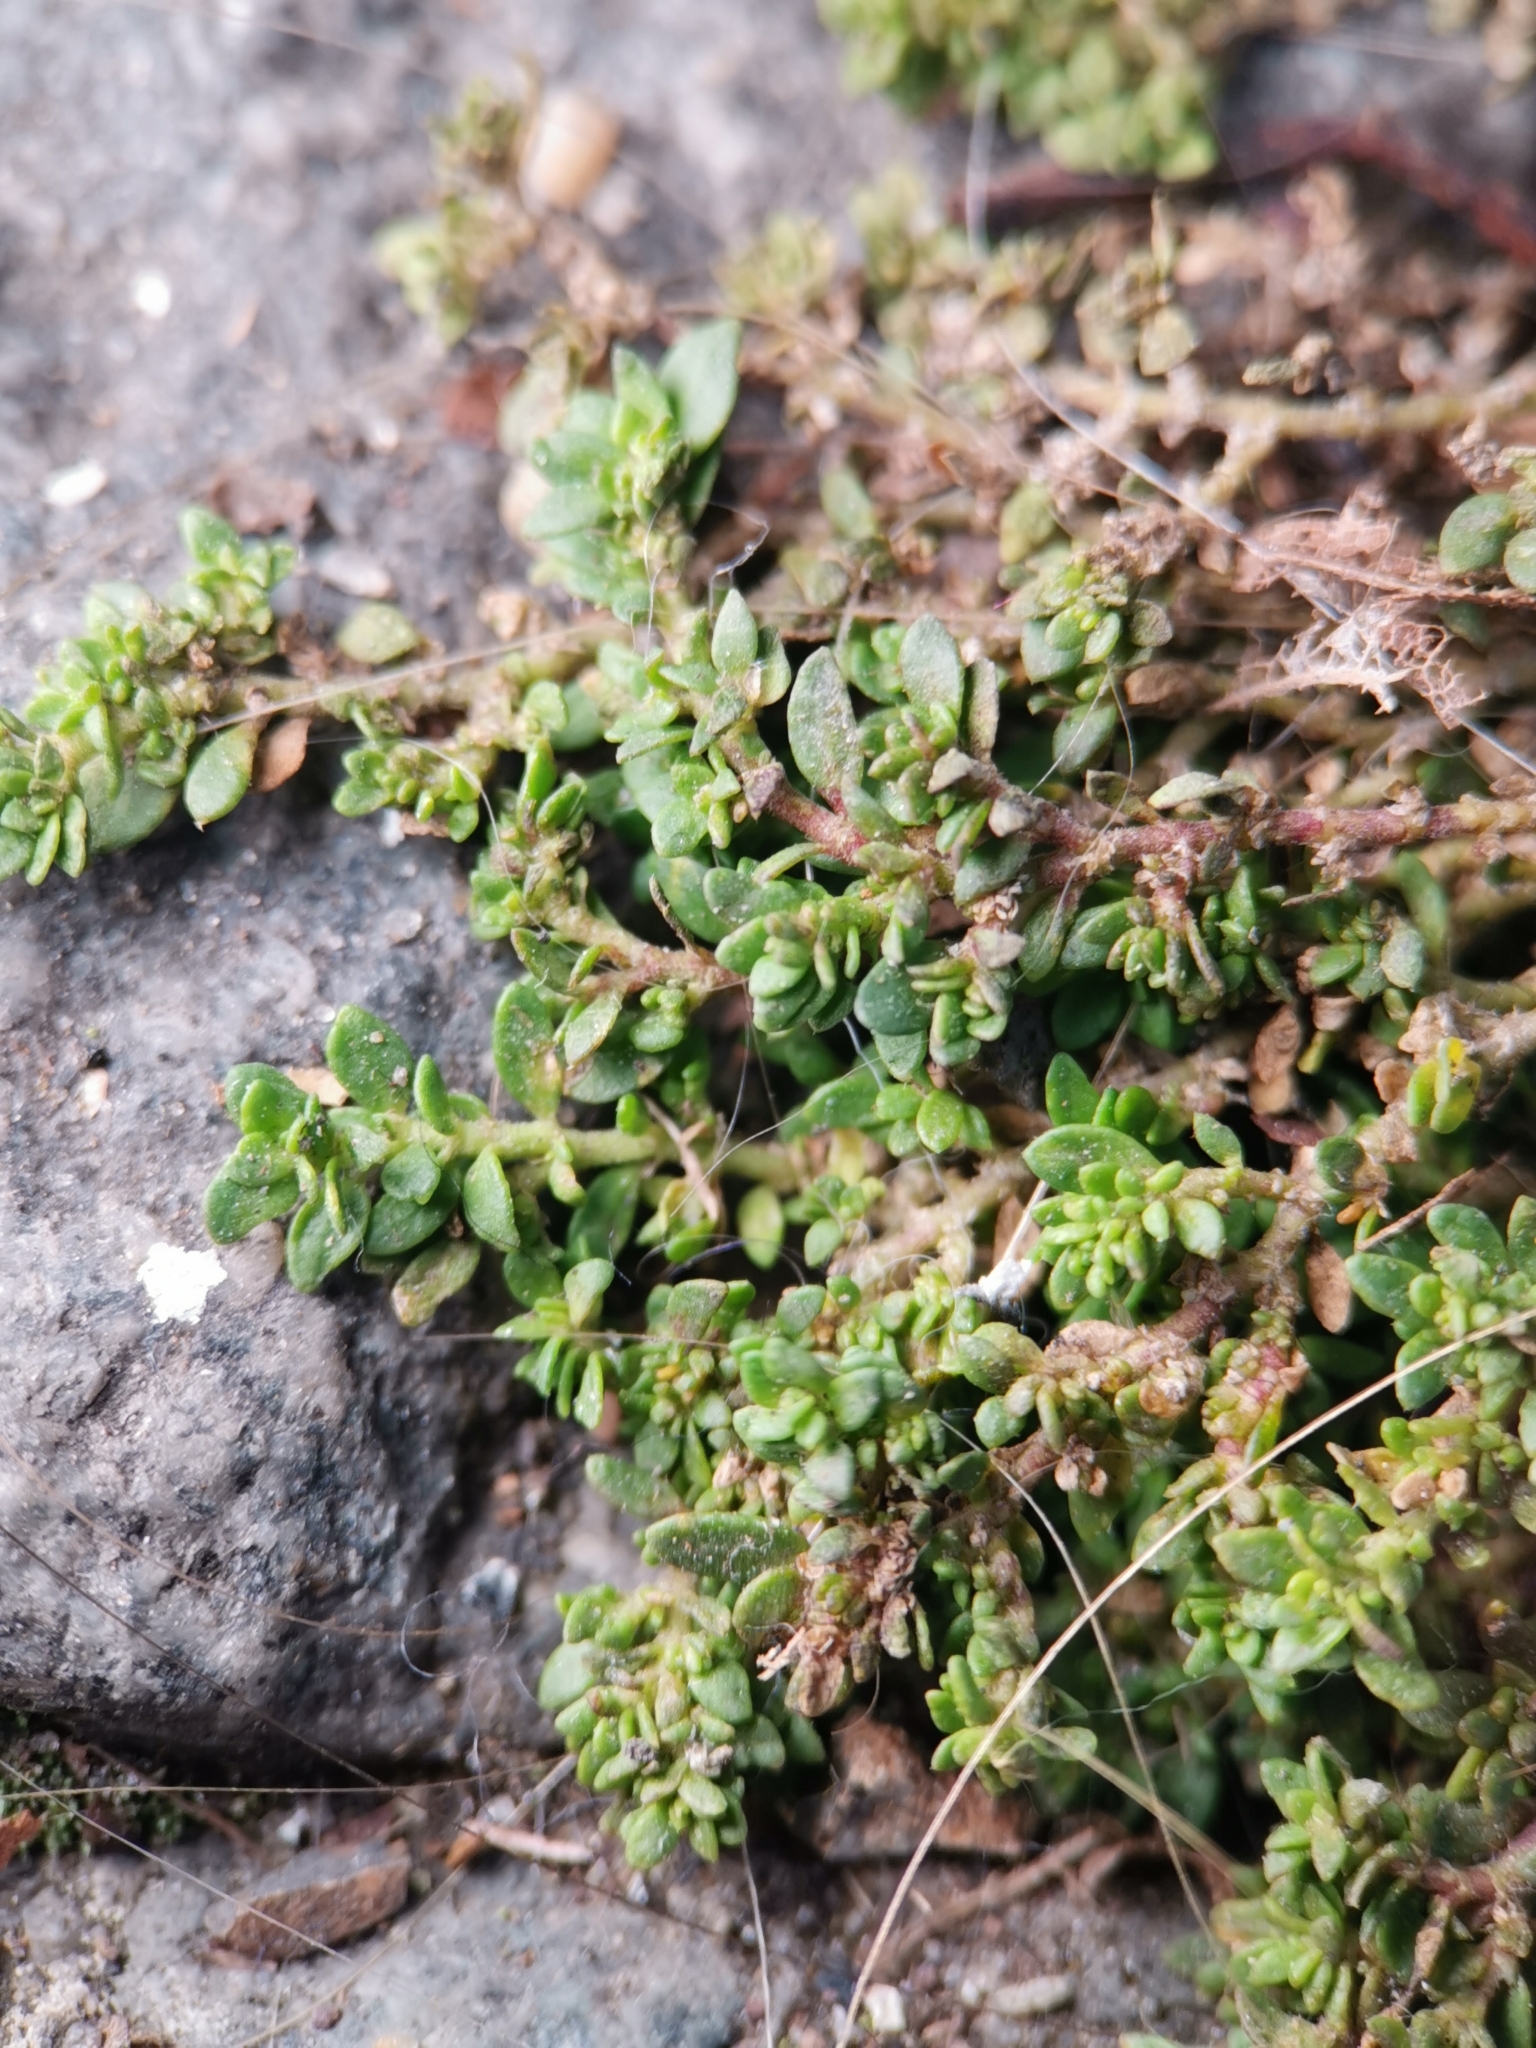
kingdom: Plantae
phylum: Tracheophyta
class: Magnoliopsida
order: Caryophyllales
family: Caryophyllaceae
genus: Herniaria
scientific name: Herniaria glabra
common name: Smooth rupturewort
